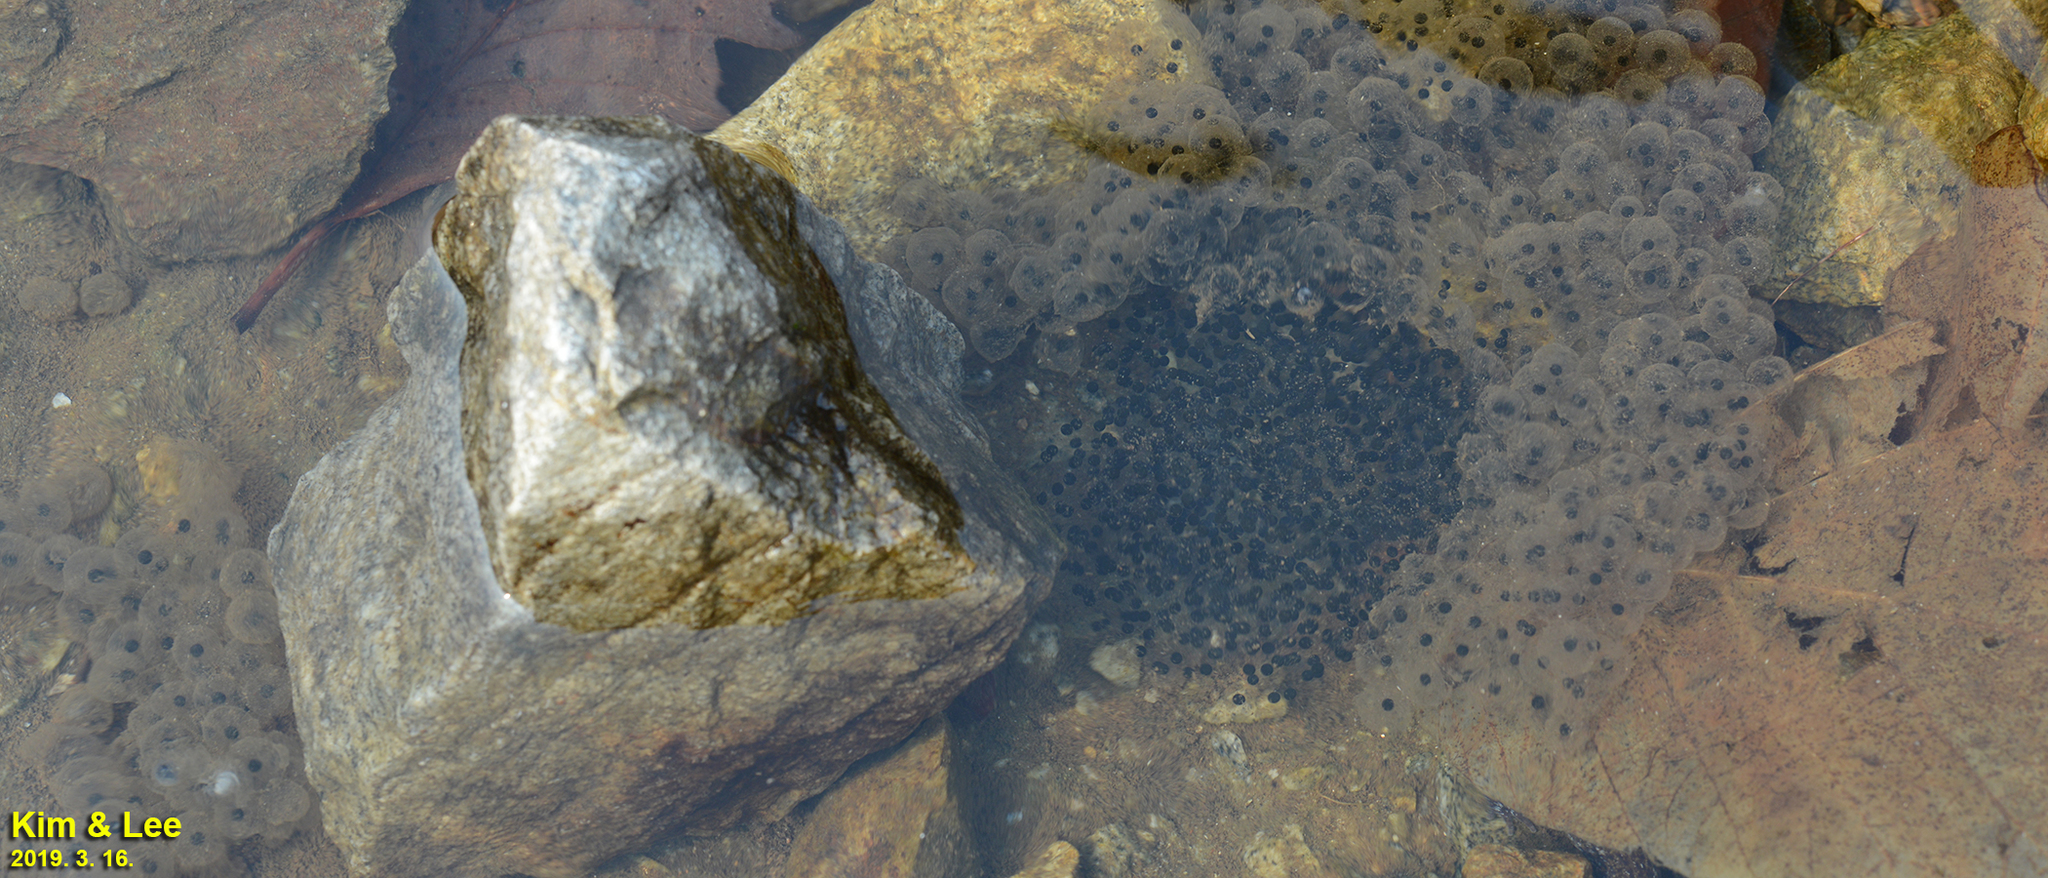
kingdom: Animalia
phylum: Chordata
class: Amphibia
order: Anura
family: Ranidae
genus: Rana
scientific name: Rana huanrenensis
